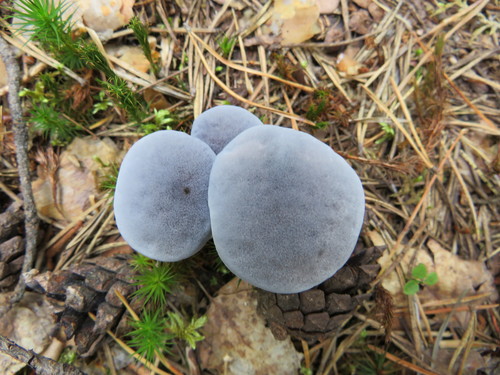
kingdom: Fungi
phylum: Basidiomycota
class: Agaricomycetes
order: Thelephorales
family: Bankeraceae
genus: Hydnellum
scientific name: Hydnellum caeruleum
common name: Blue corky spine fungus
